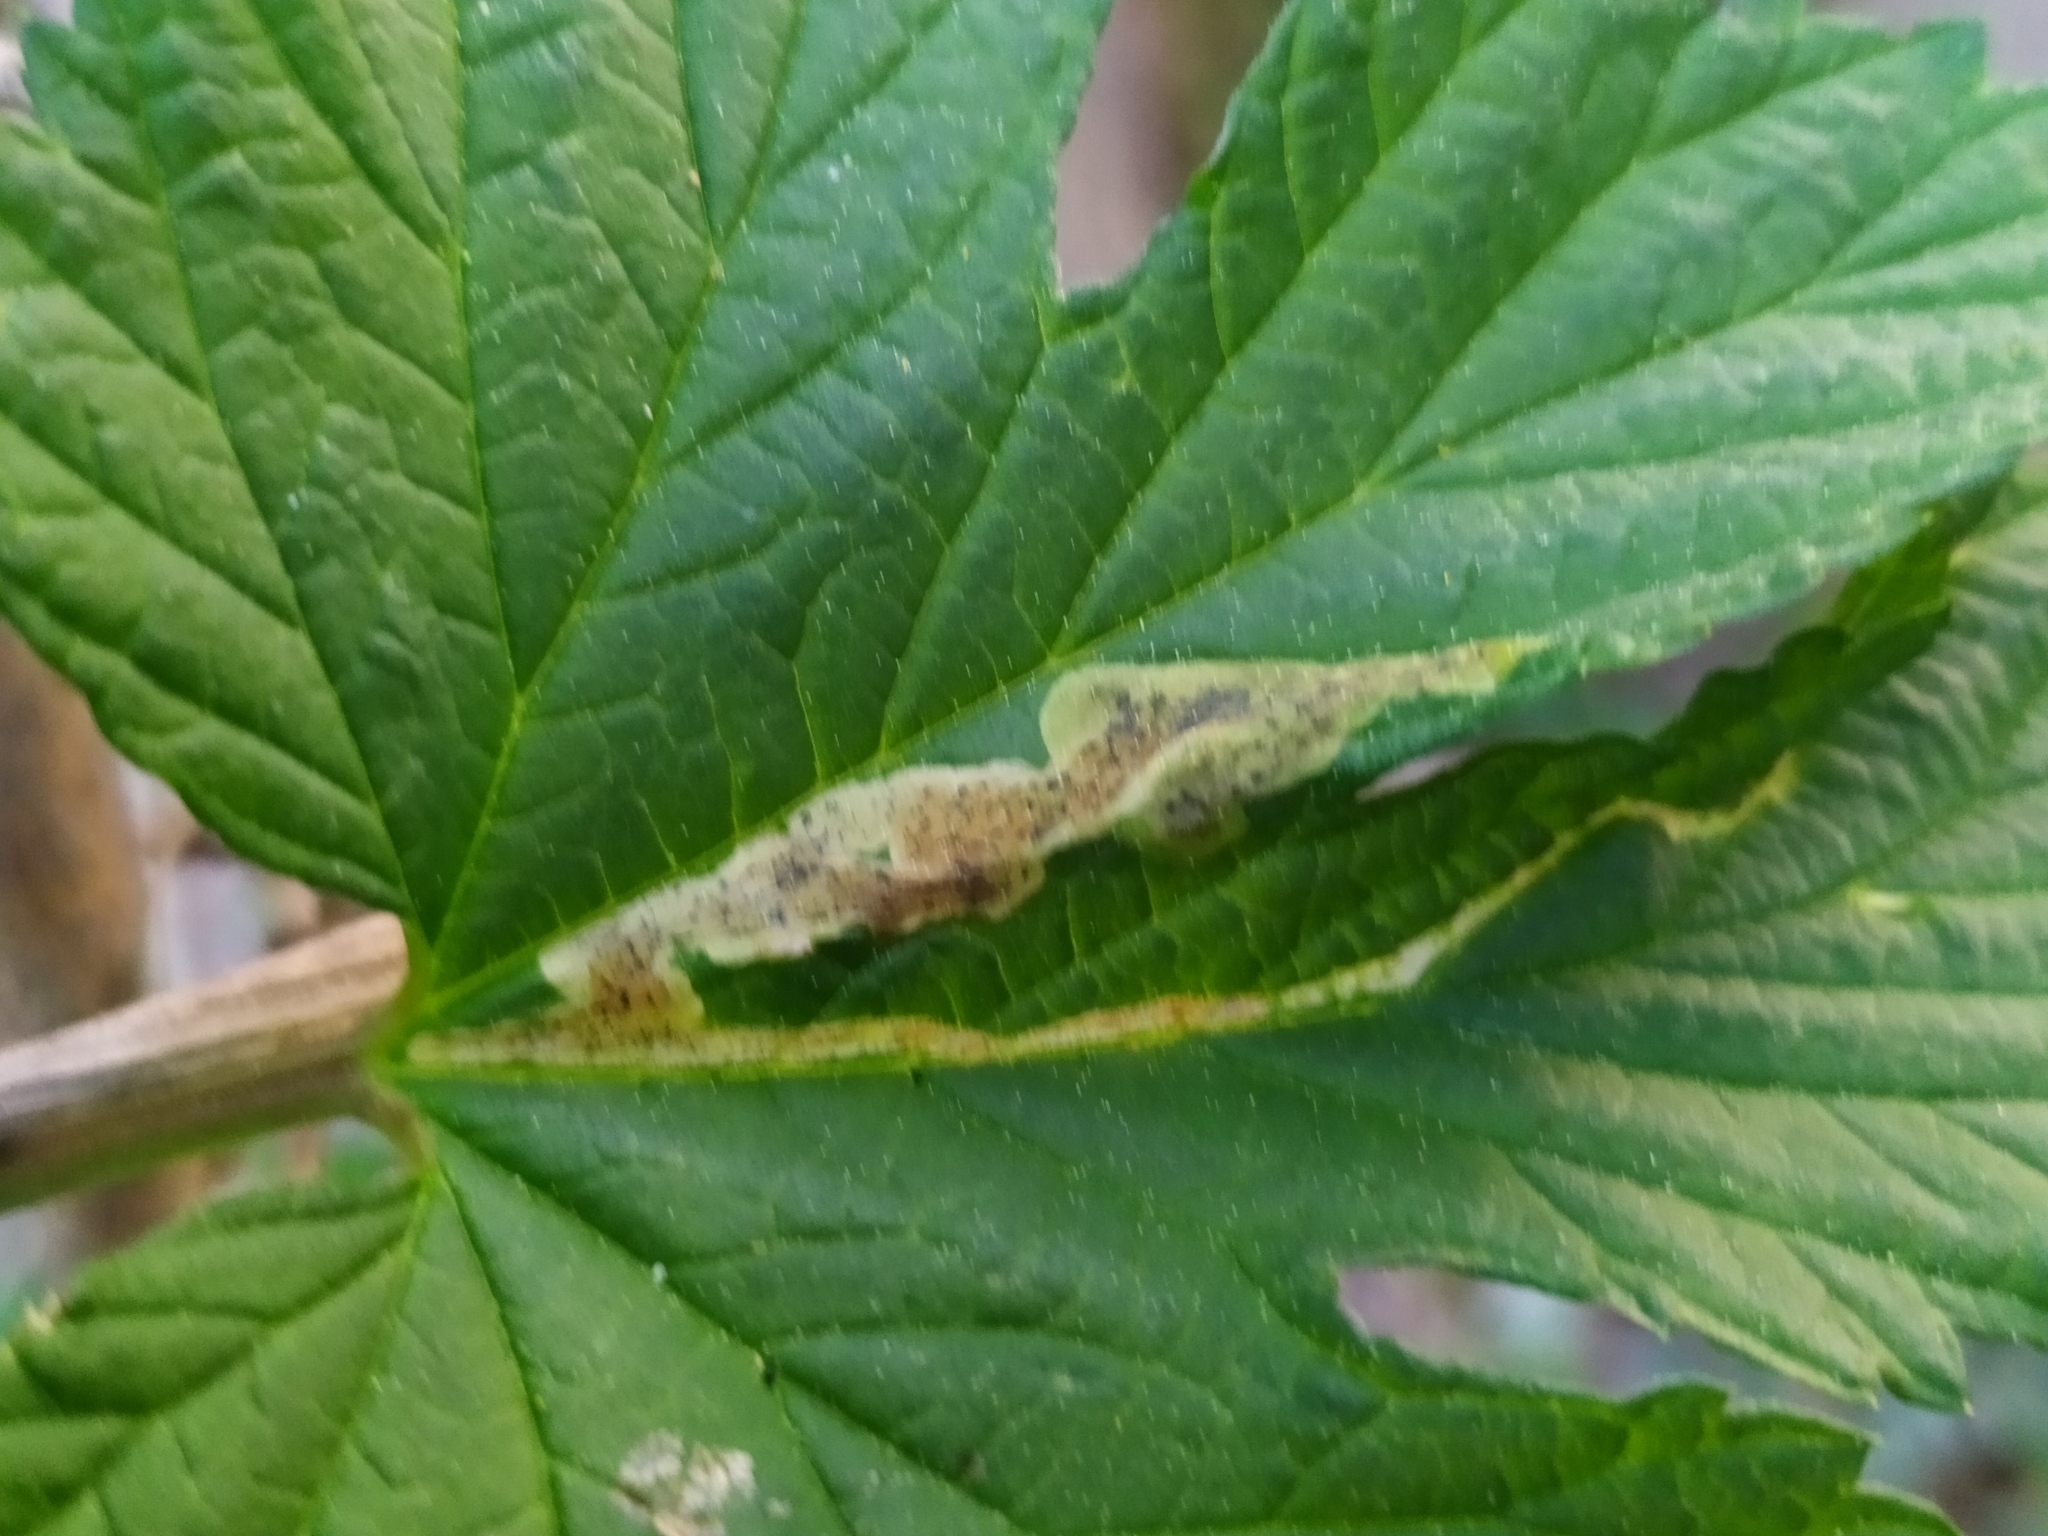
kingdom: Animalia
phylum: Arthropoda
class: Insecta
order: Diptera
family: Agromyzidae
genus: Agromyza
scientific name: Agromyza igniceps
